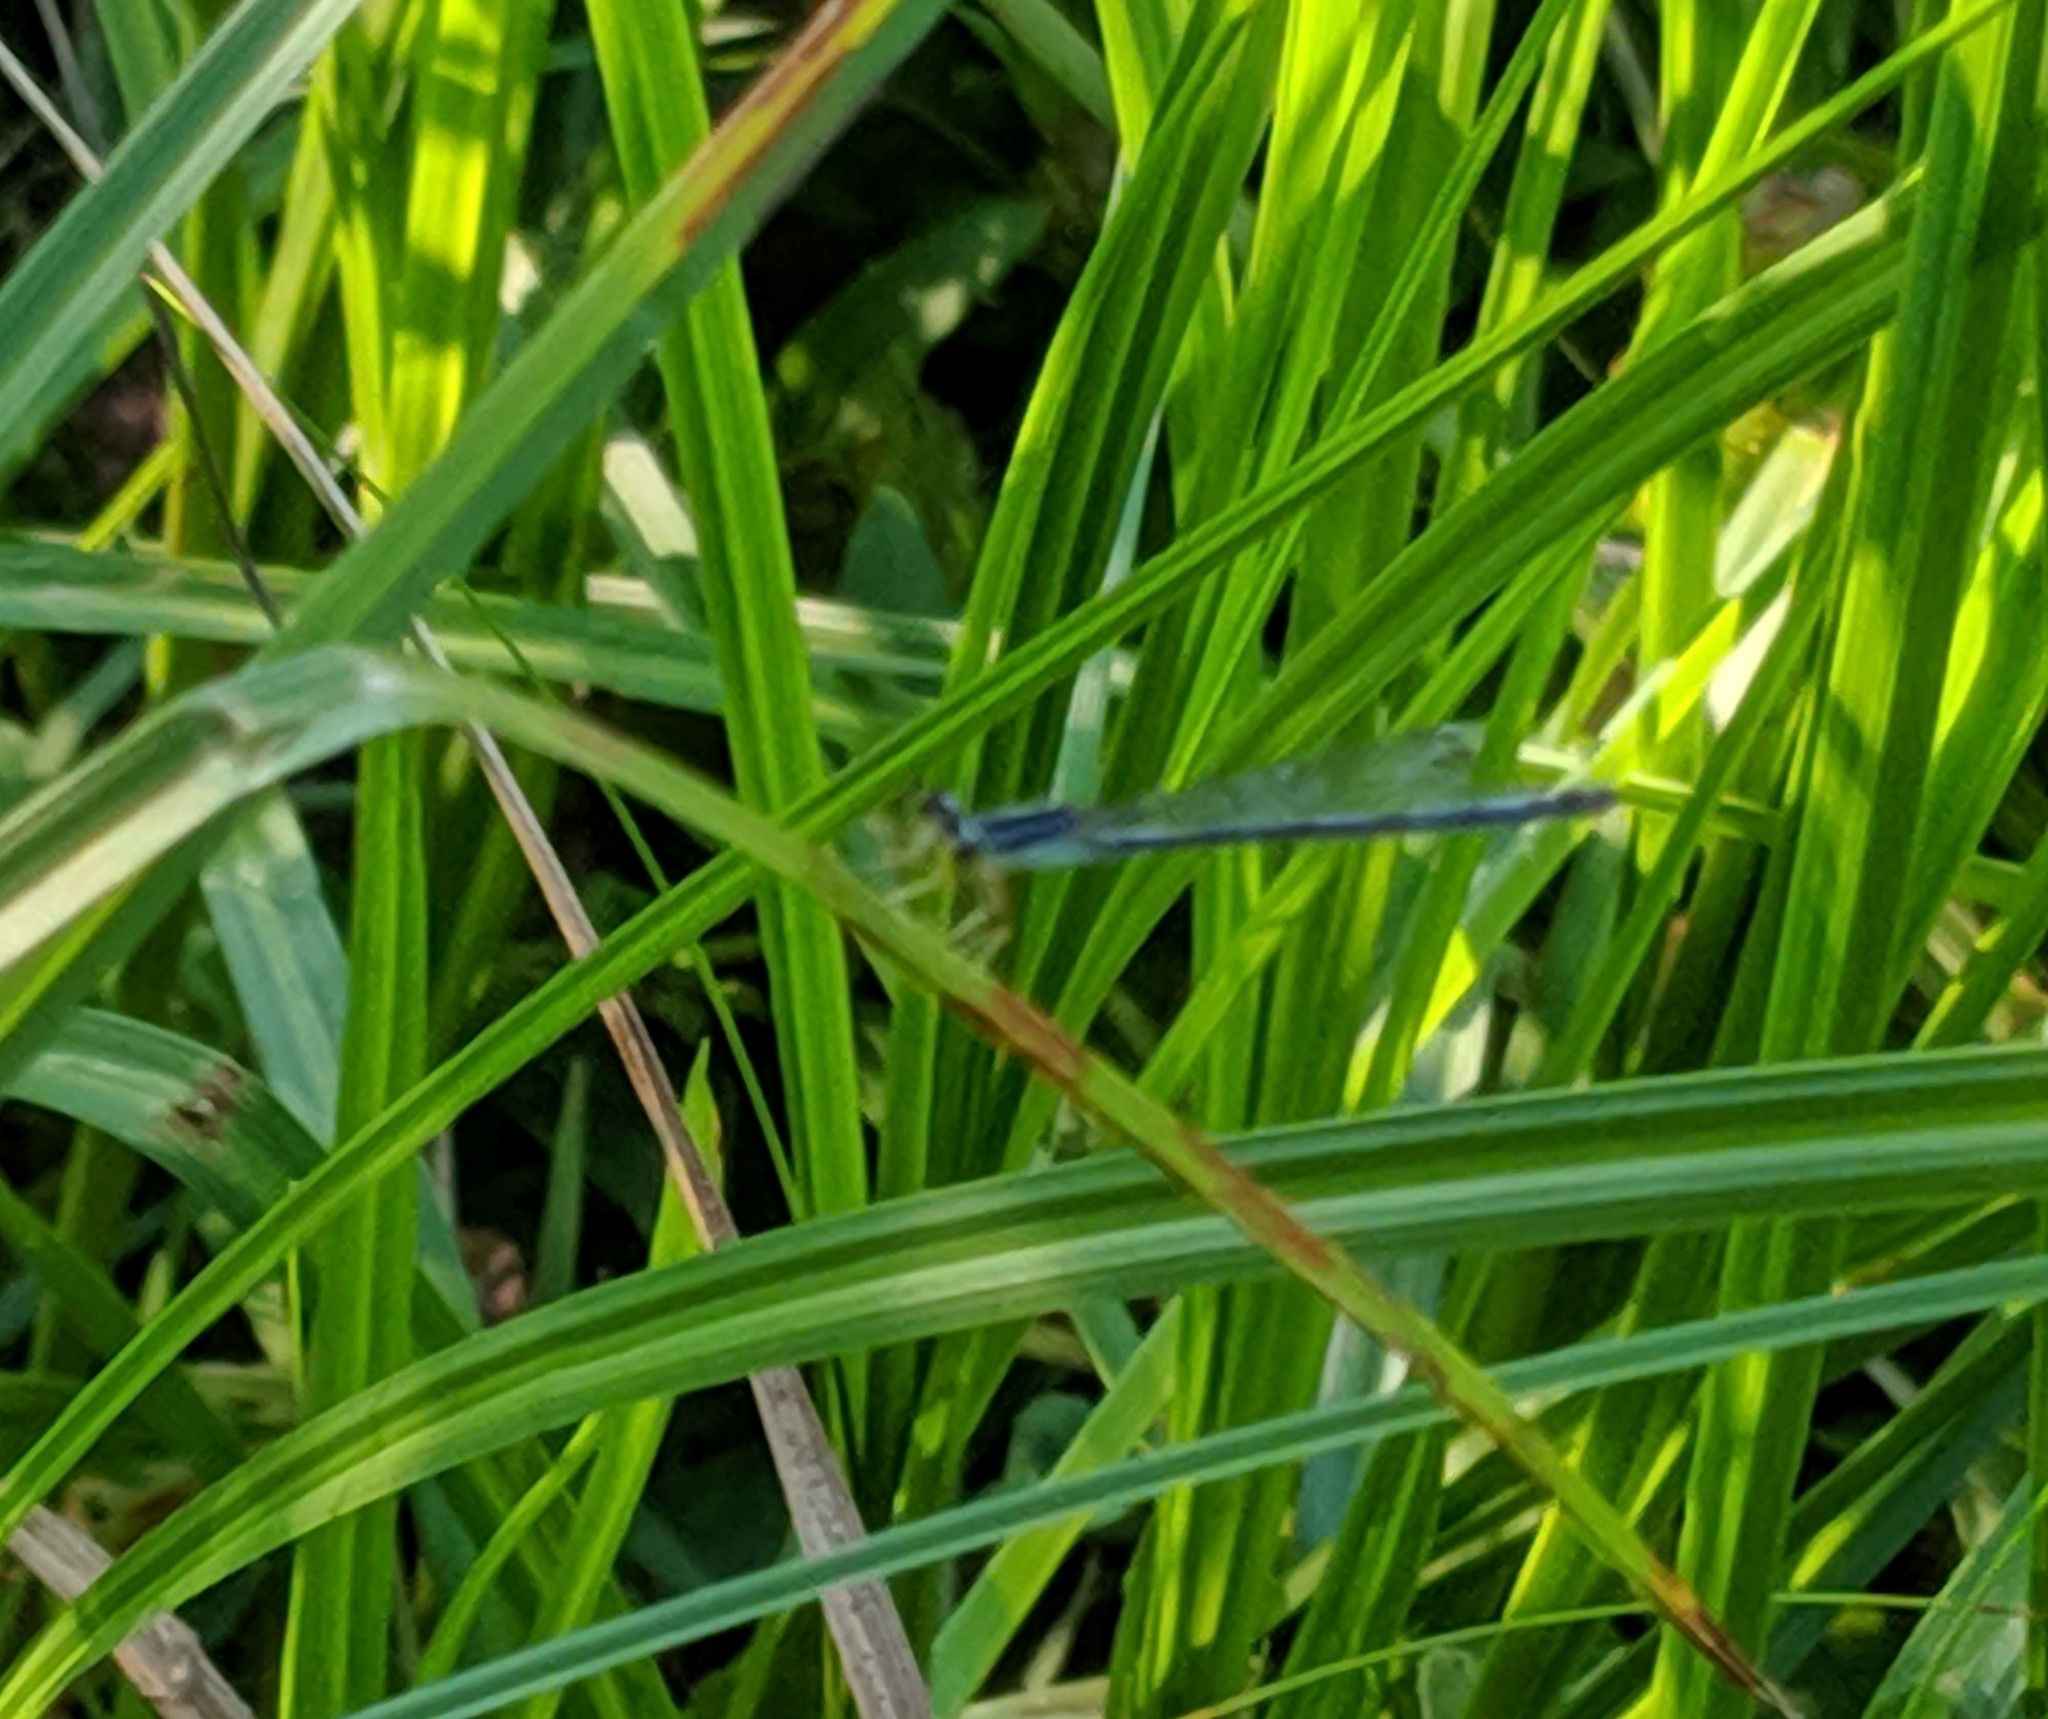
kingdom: Animalia
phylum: Arthropoda
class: Insecta
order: Odonata
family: Coenagrionidae
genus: Ischnura
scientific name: Ischnura verticalis
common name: Eastern forktail
